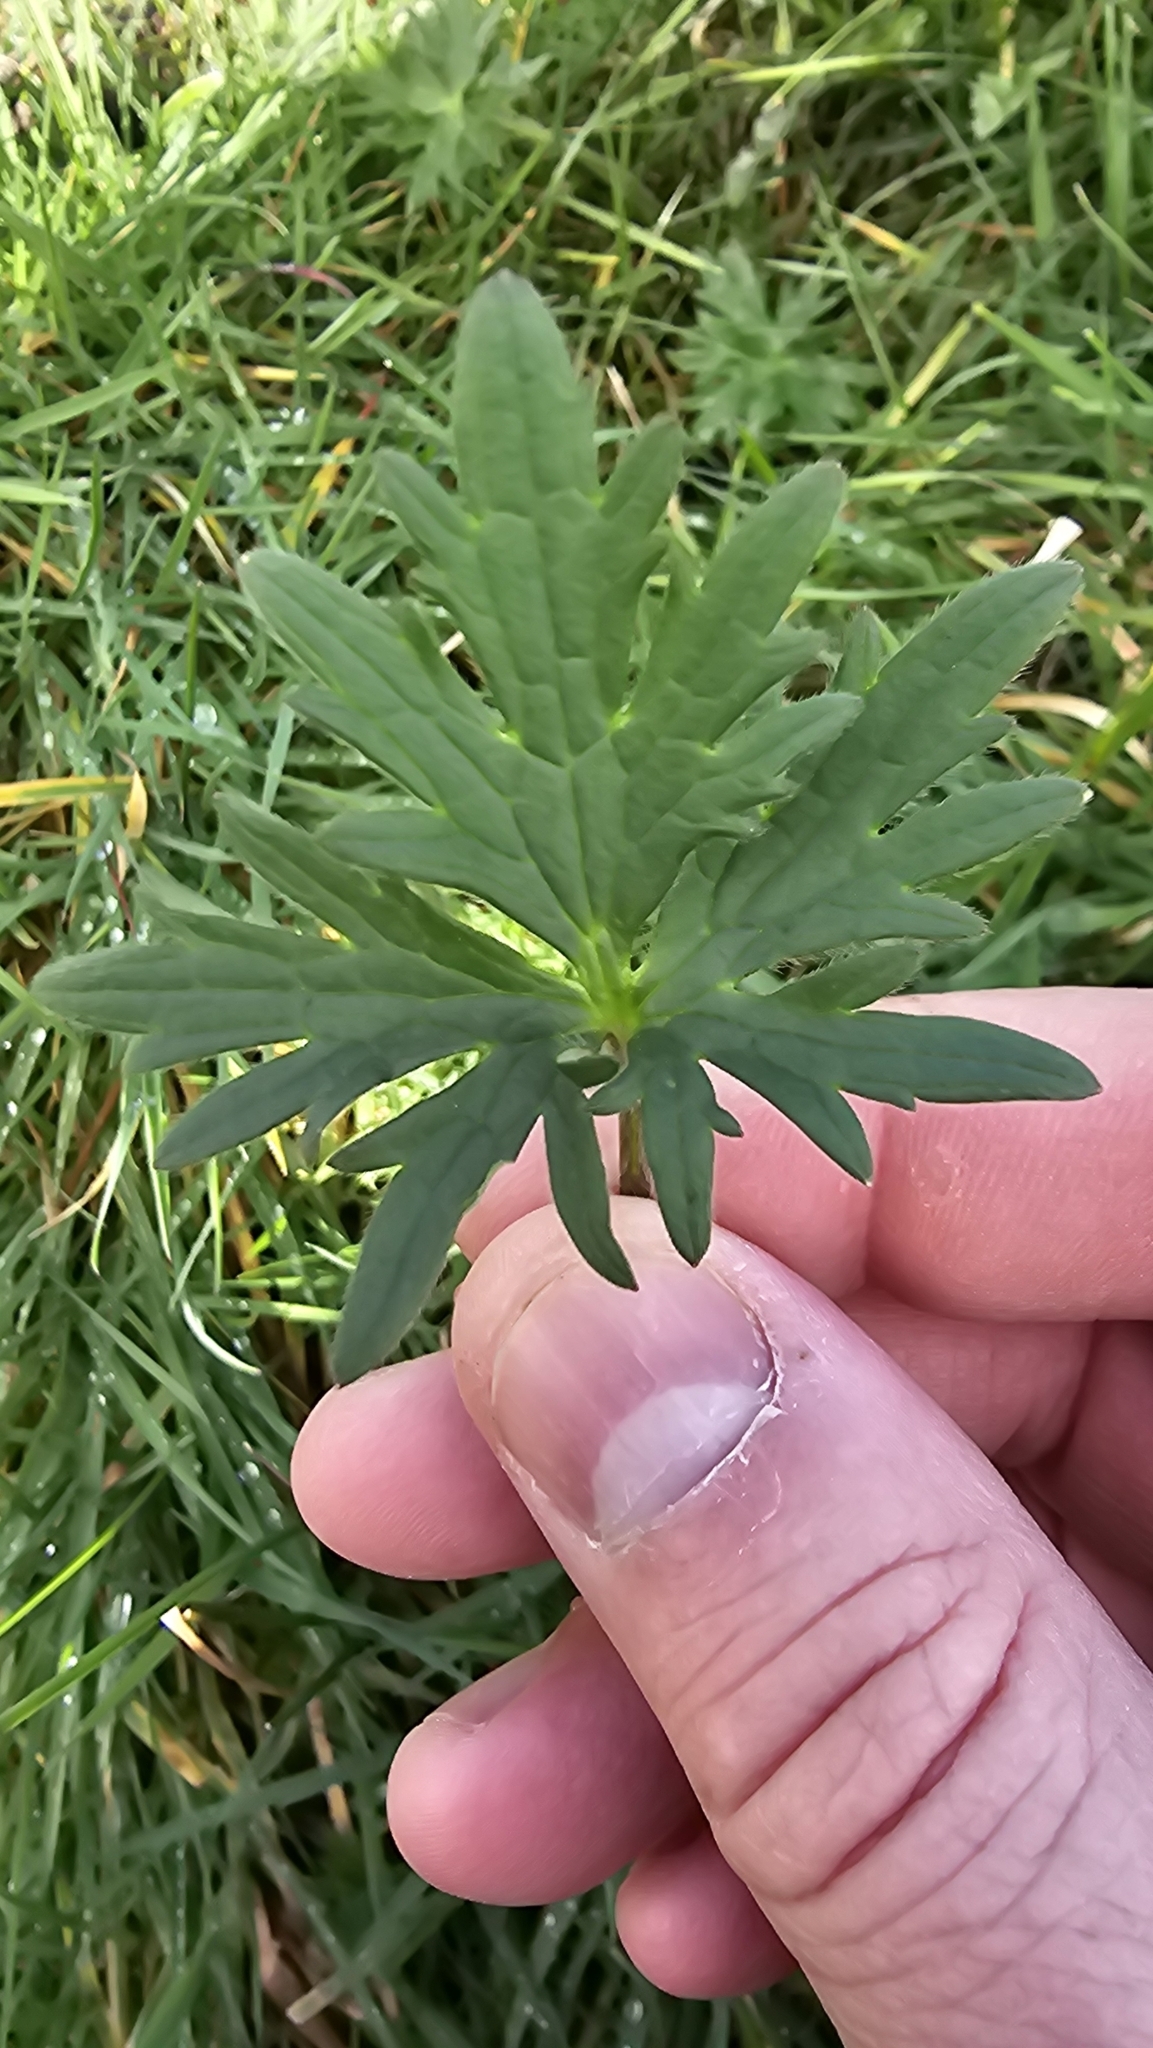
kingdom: Plantae
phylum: Tracheophyta
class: Magnoliopsida
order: Ranunculales
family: Ranunculaceae
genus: Ranunculus
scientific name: Ranunculus acris
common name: Meadow buttercup
